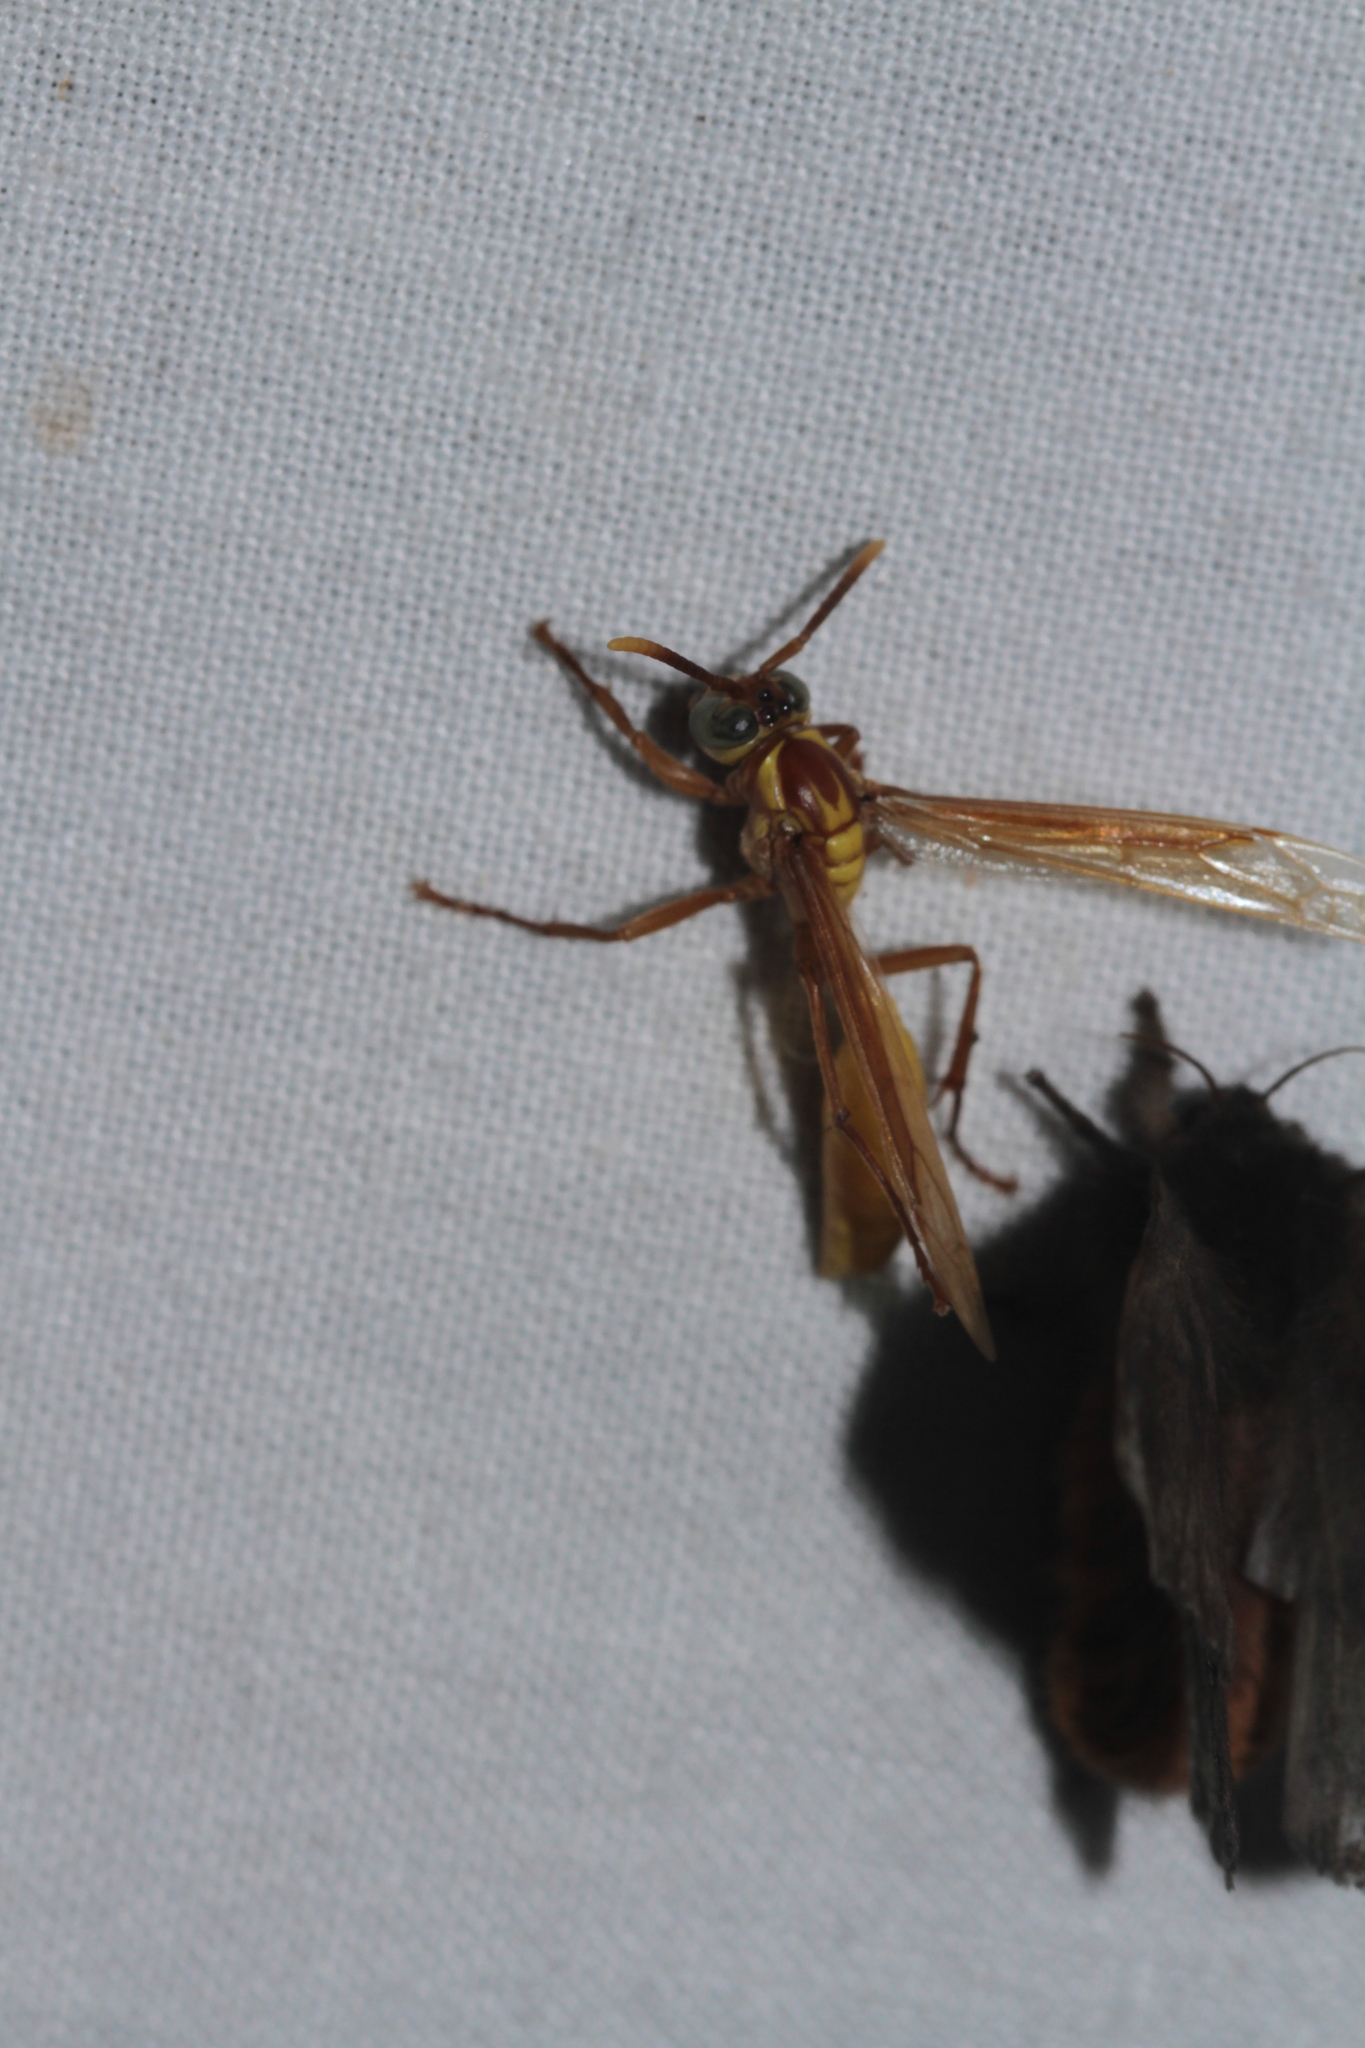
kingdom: Animalia
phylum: Arthropoda
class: Insecta
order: Hymenoptera
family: Vespidae
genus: Apoica
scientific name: Apoica flavissima
